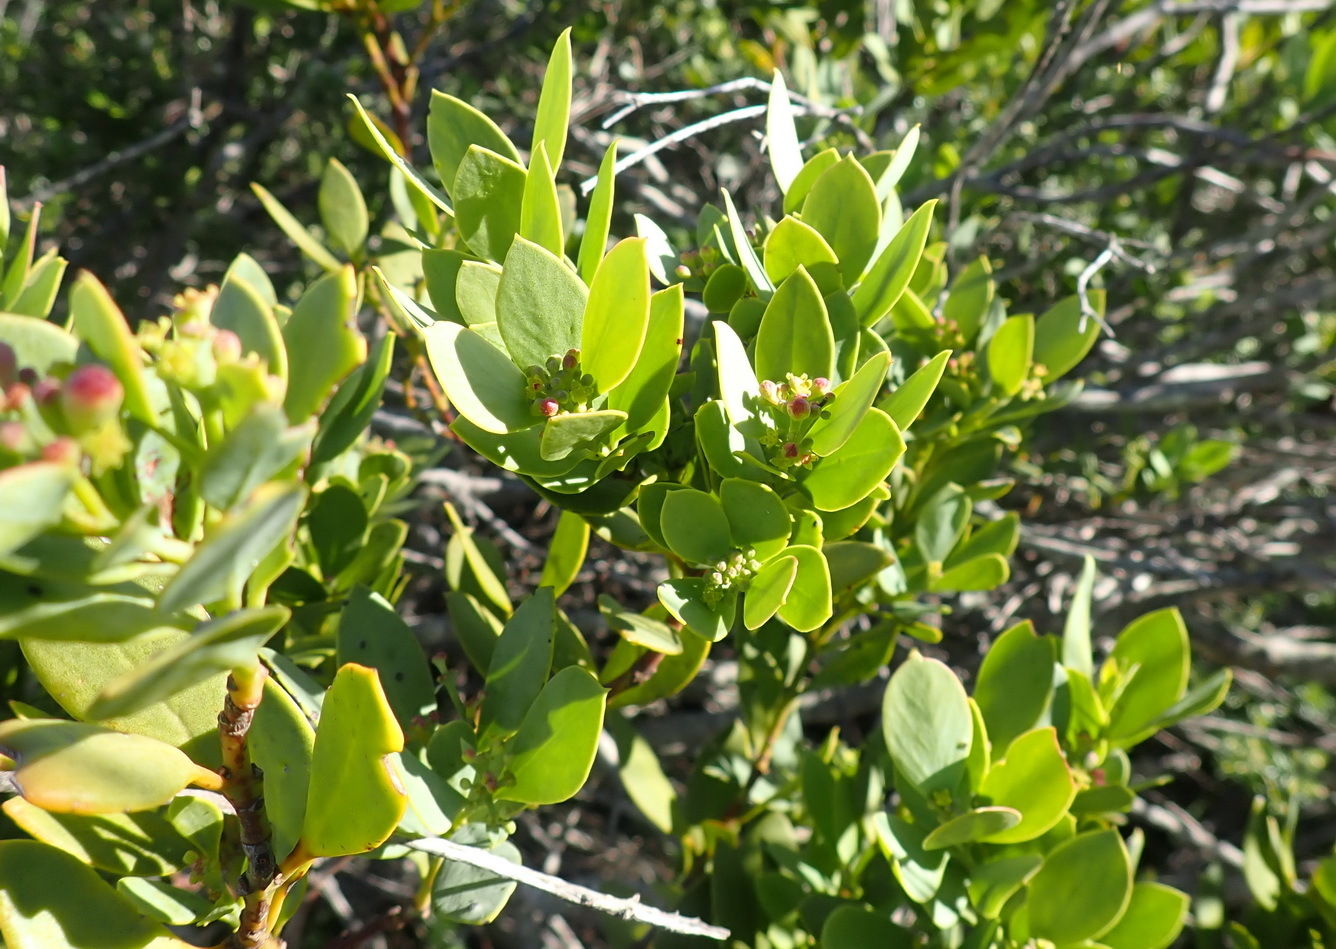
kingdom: Plantae
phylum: Tracheophyta
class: Magnoliopsida
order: Santalales
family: Santalaceae
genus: Osyris
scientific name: Osyris compressa
